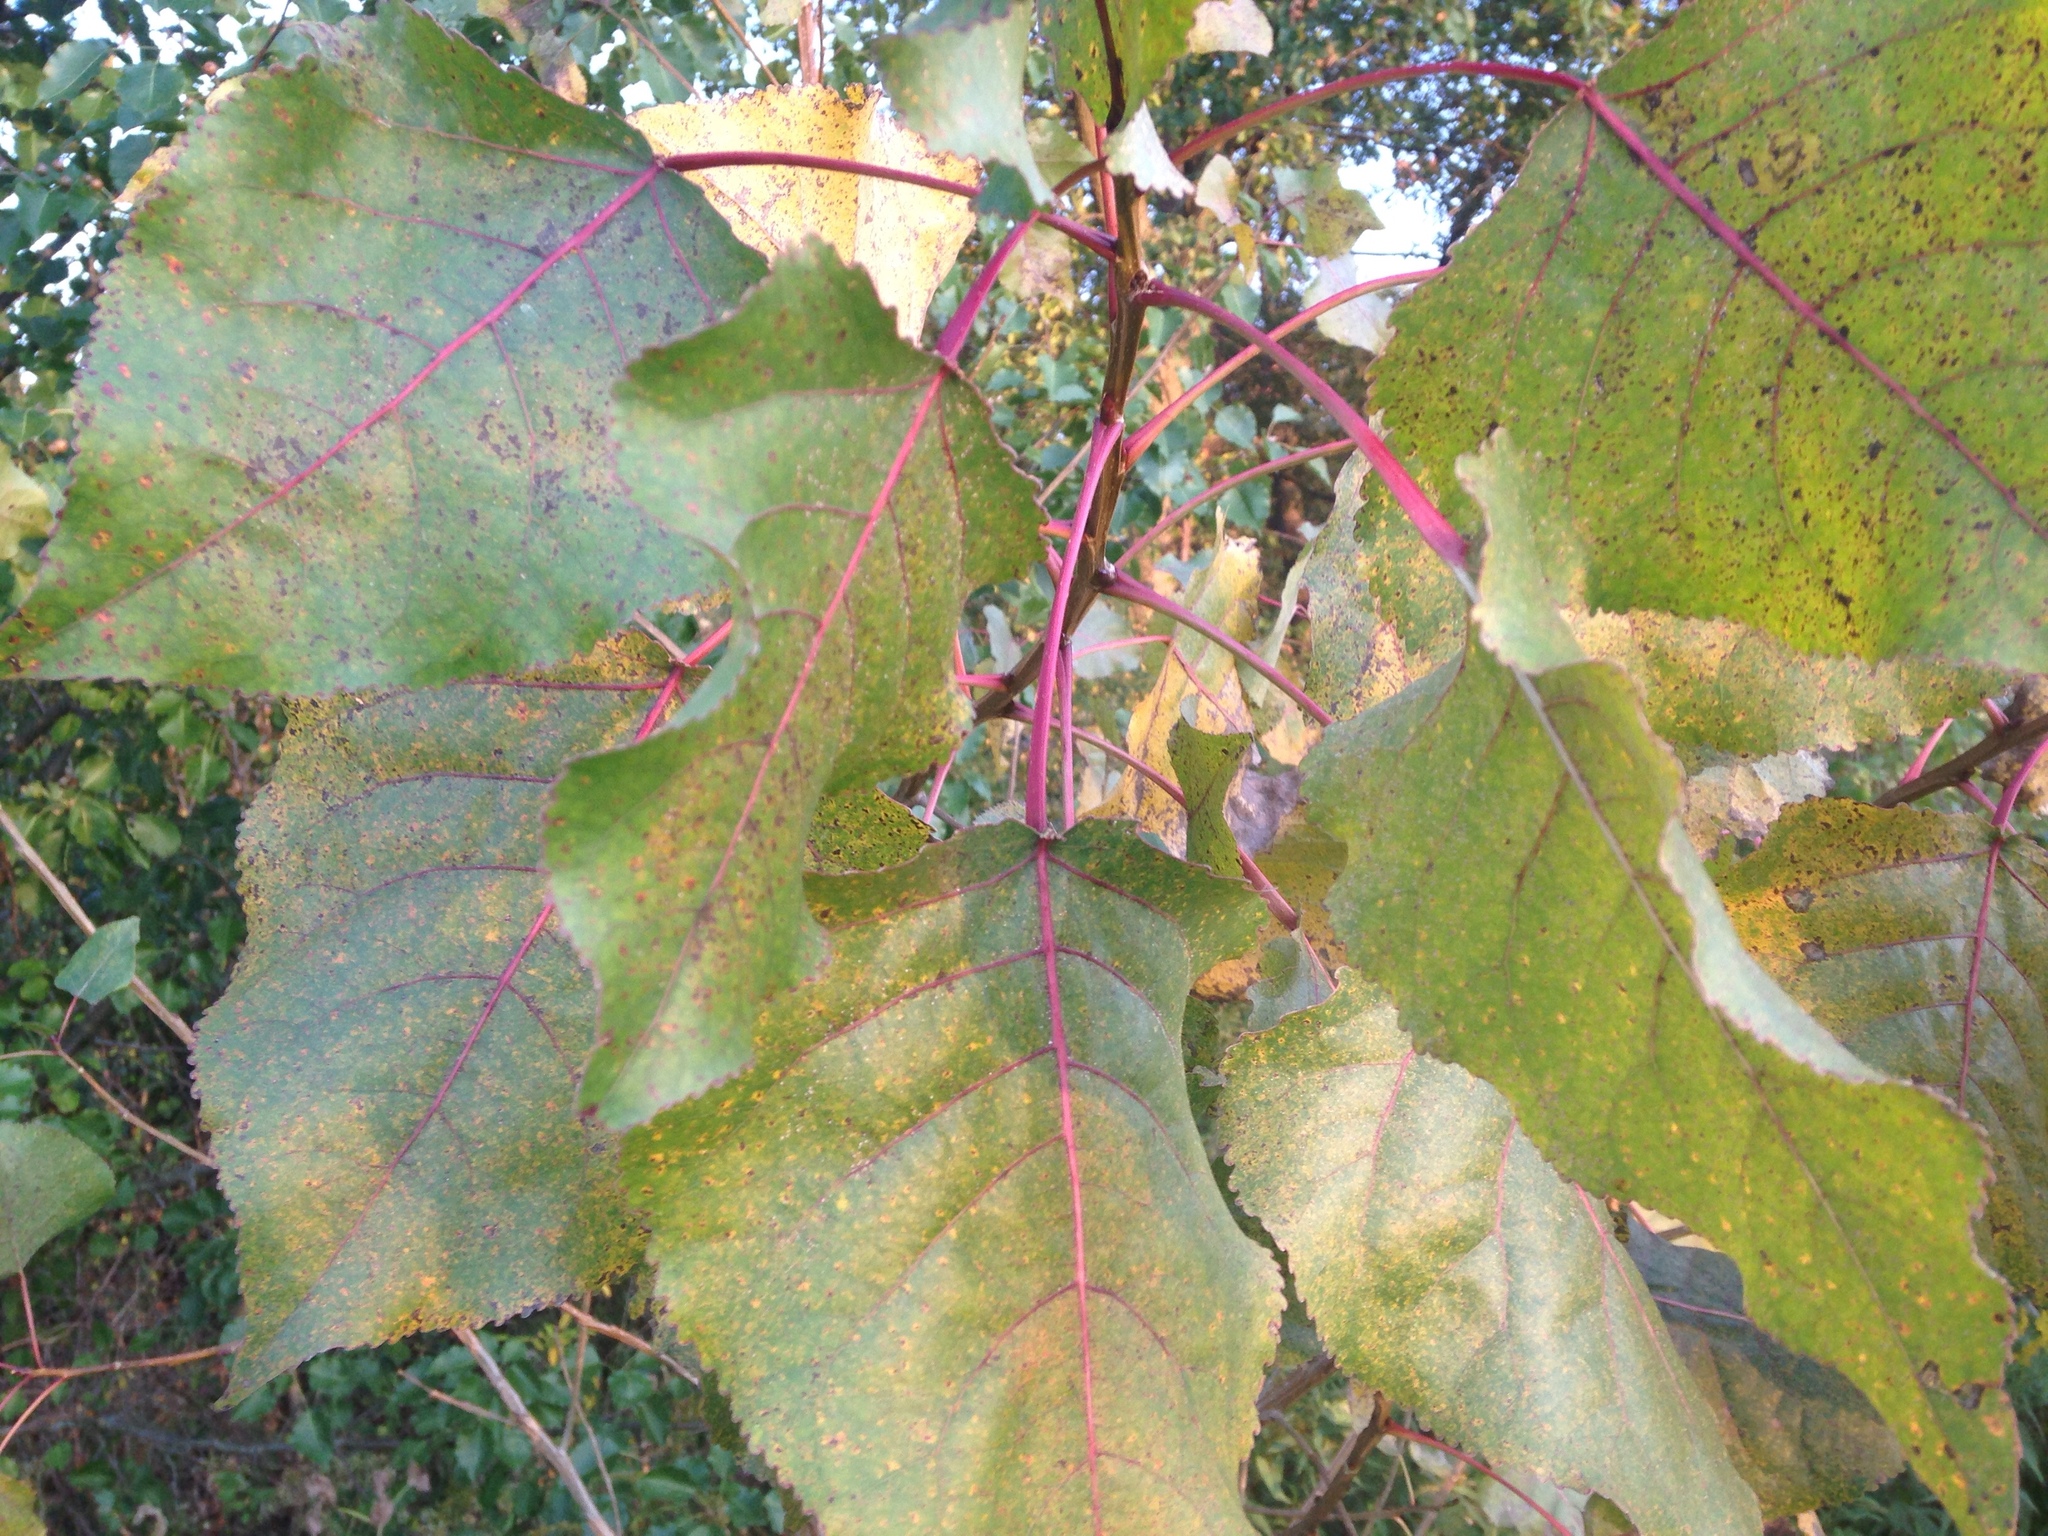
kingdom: Plantae
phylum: Tracheophyta
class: Magnoliopsida
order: Malpighiales
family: Salicaceae
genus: Populus
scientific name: Populus deltoides
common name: Eastern cottonwood
